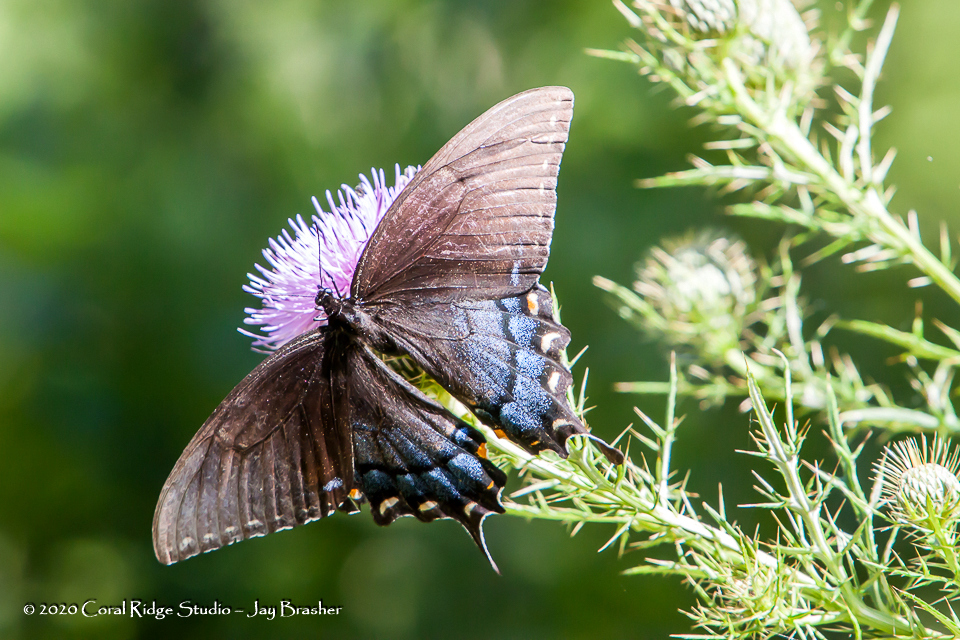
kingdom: Animalia
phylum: Arthropoda
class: Insecta
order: Lepidoptera
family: Papilionidae
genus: Papilio
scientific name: Papilio glaucus
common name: Tiger swallowtail
